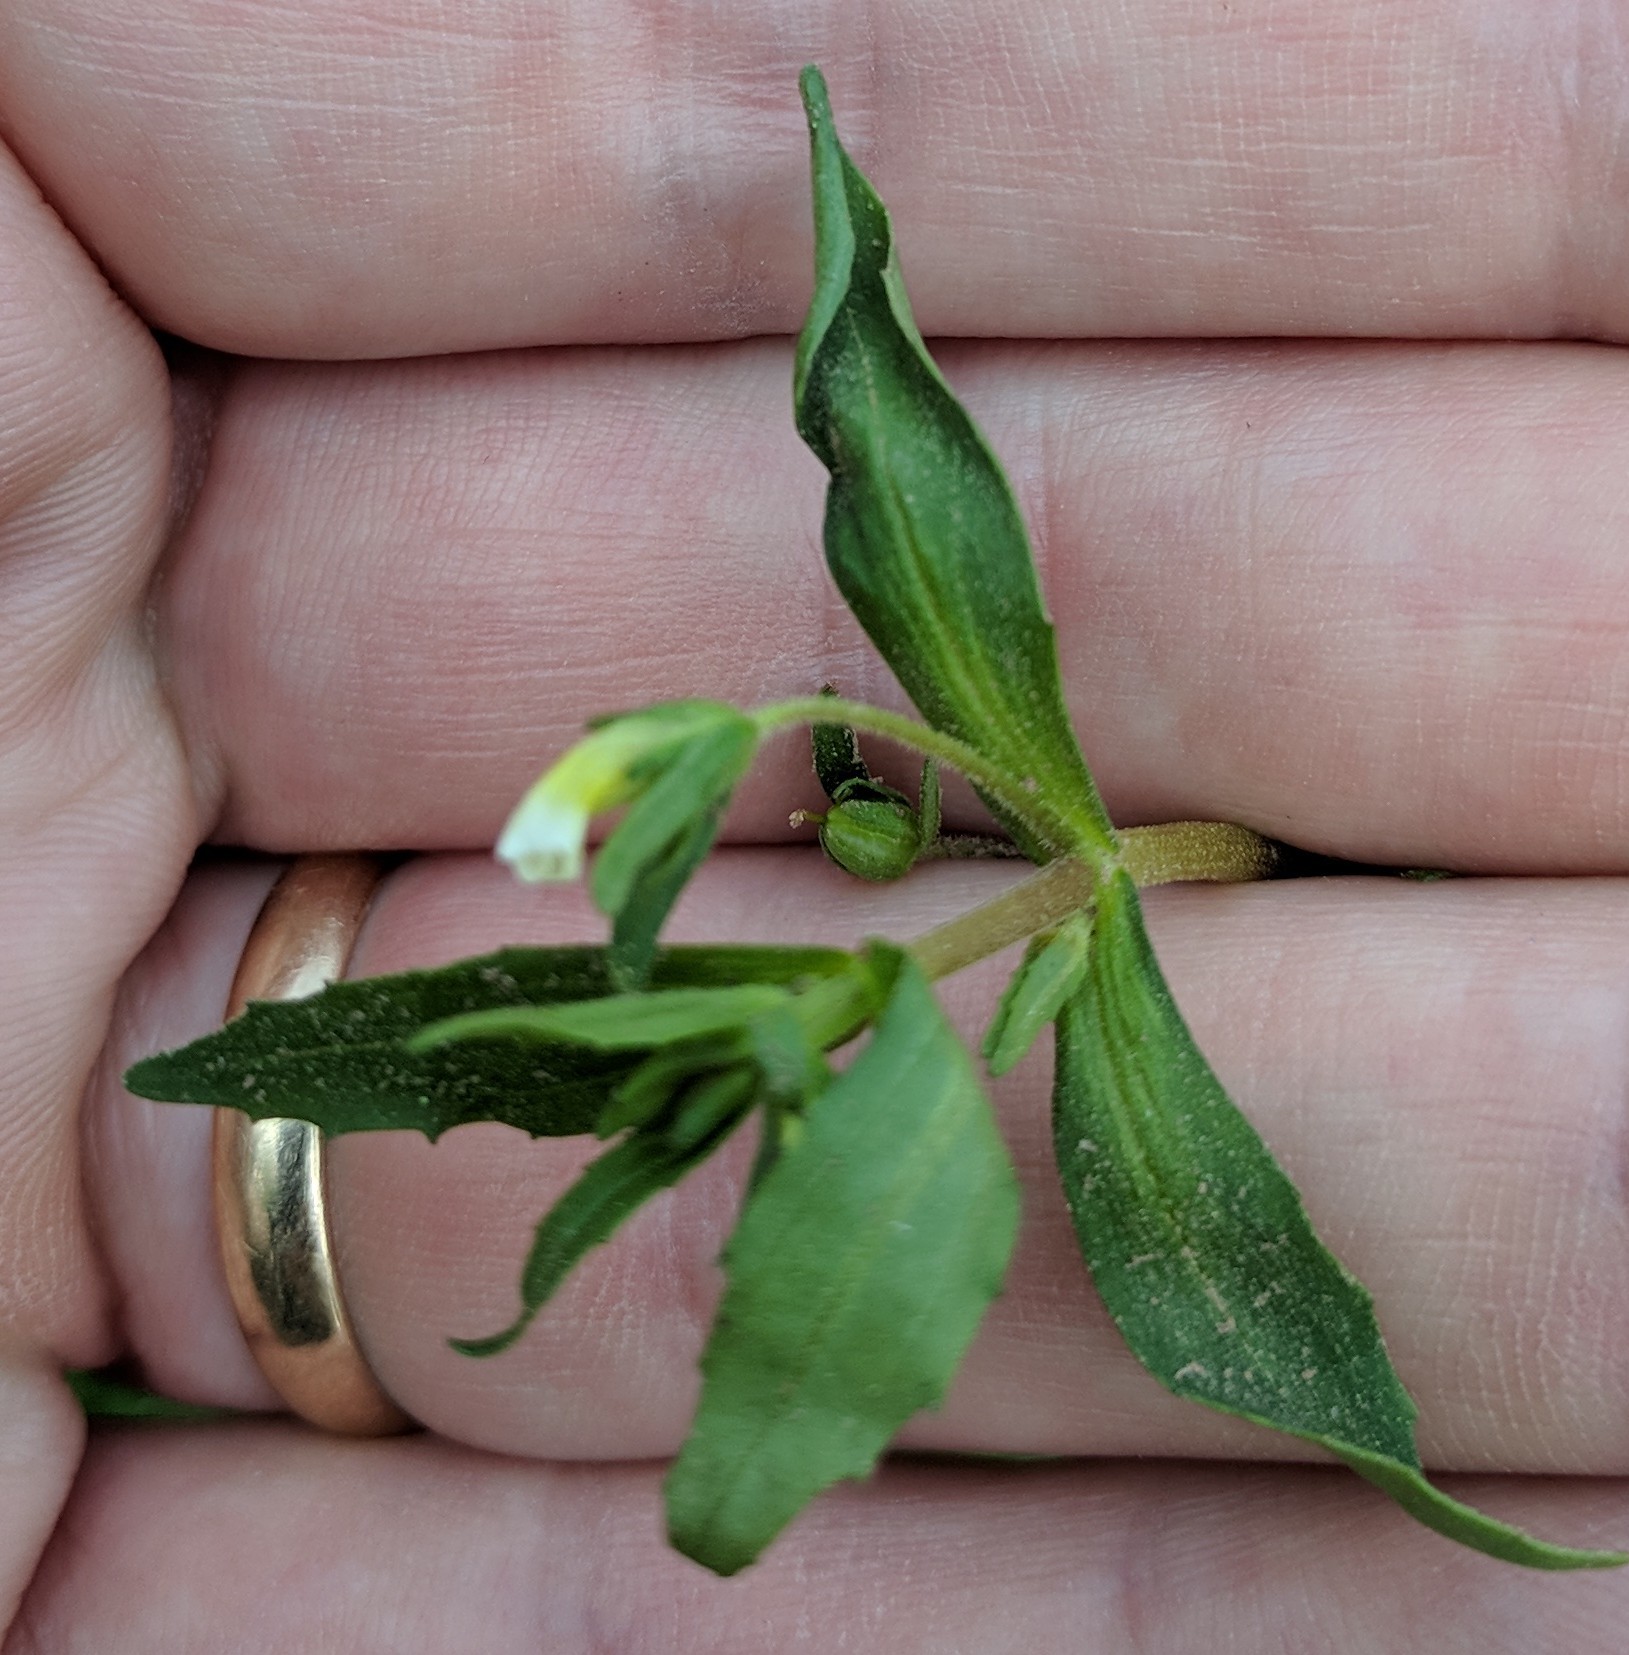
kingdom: Plantae
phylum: Tracheophyta
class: Magnoliopsida
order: Lamiales
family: Plantaginaceae
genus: Gratiola
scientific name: Gratiola neglecta
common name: American hedge-hyssop
